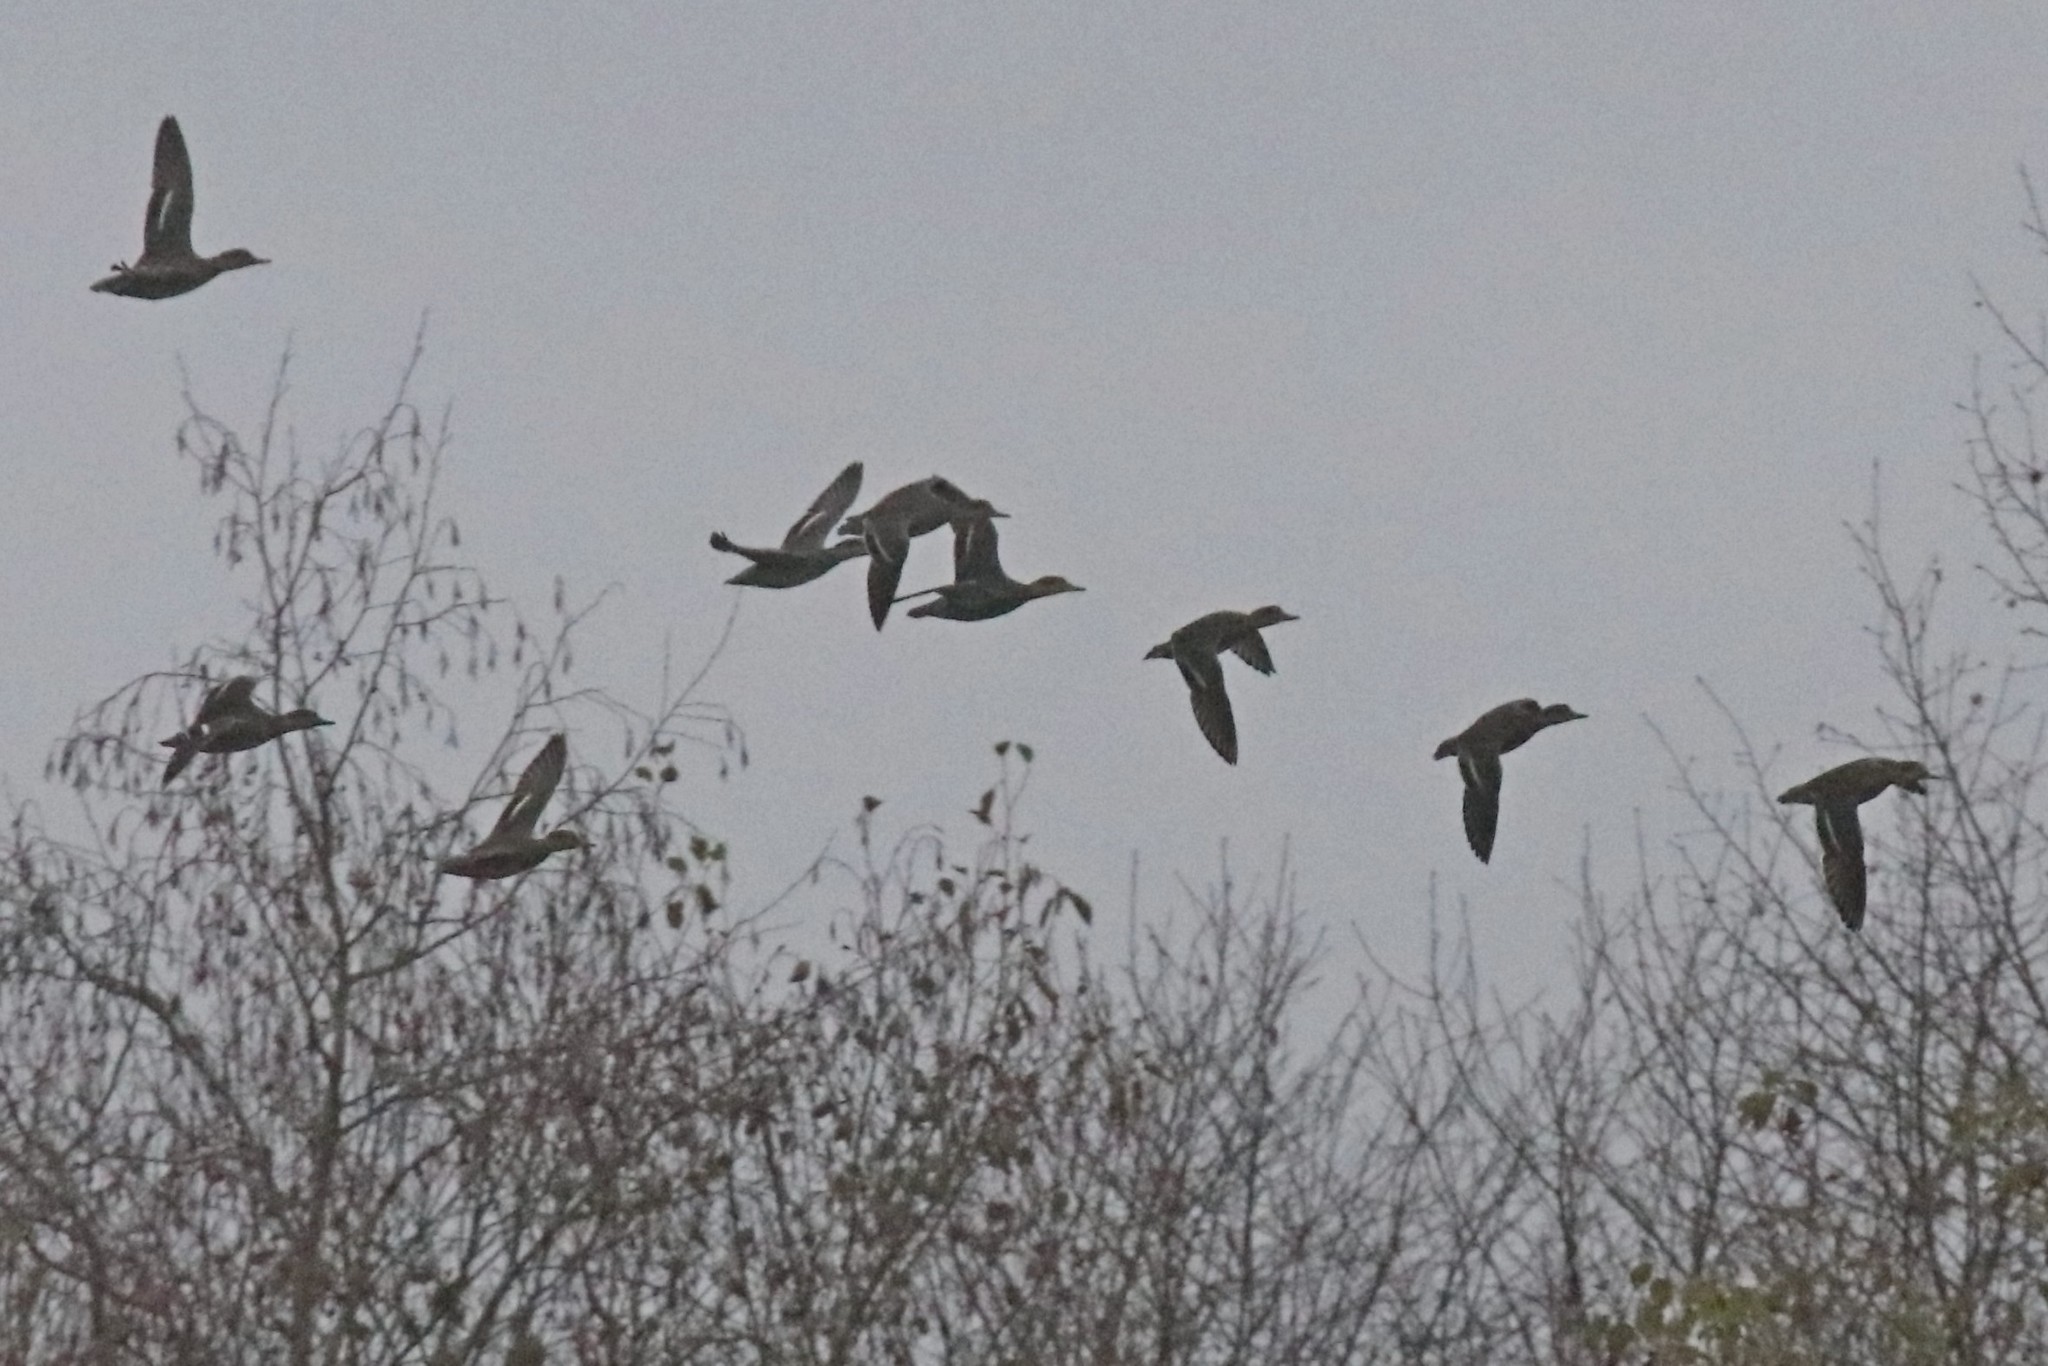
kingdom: Animalia
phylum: Chordata
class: Aves
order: Anseriformes
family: Anatidae
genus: Anas
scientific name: Anas crecca
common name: Eurasian teal
